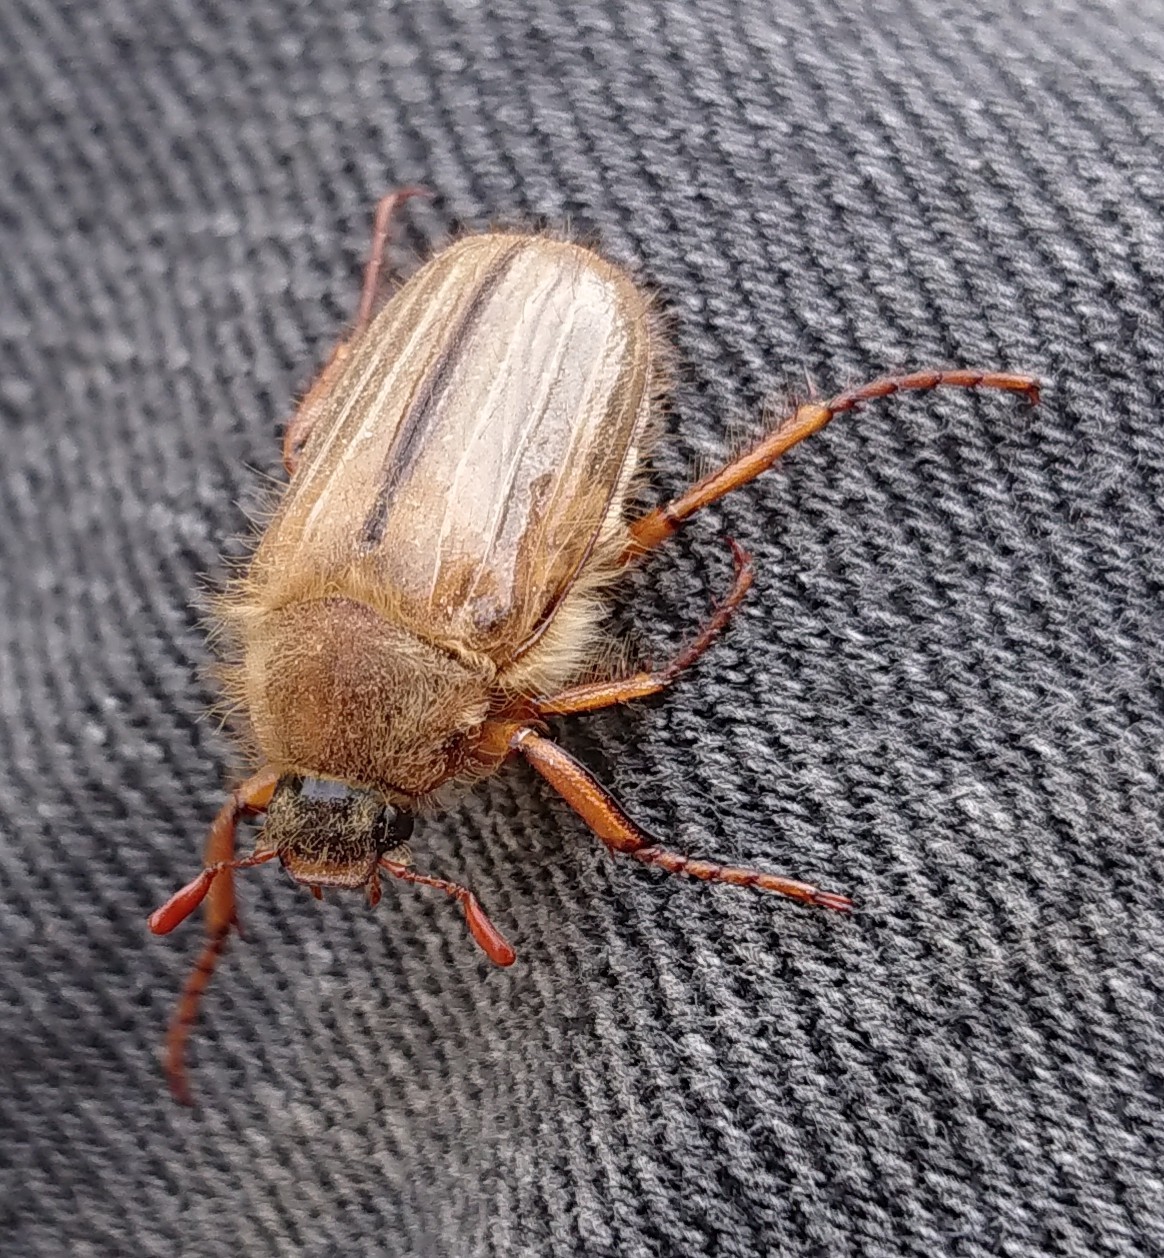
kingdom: Animalia
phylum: Arthropoda
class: Insecta
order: Coleoptera
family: Scarabaeidae
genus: Amphimallon
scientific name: Amphimallon solstitiale
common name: Summer chafer
